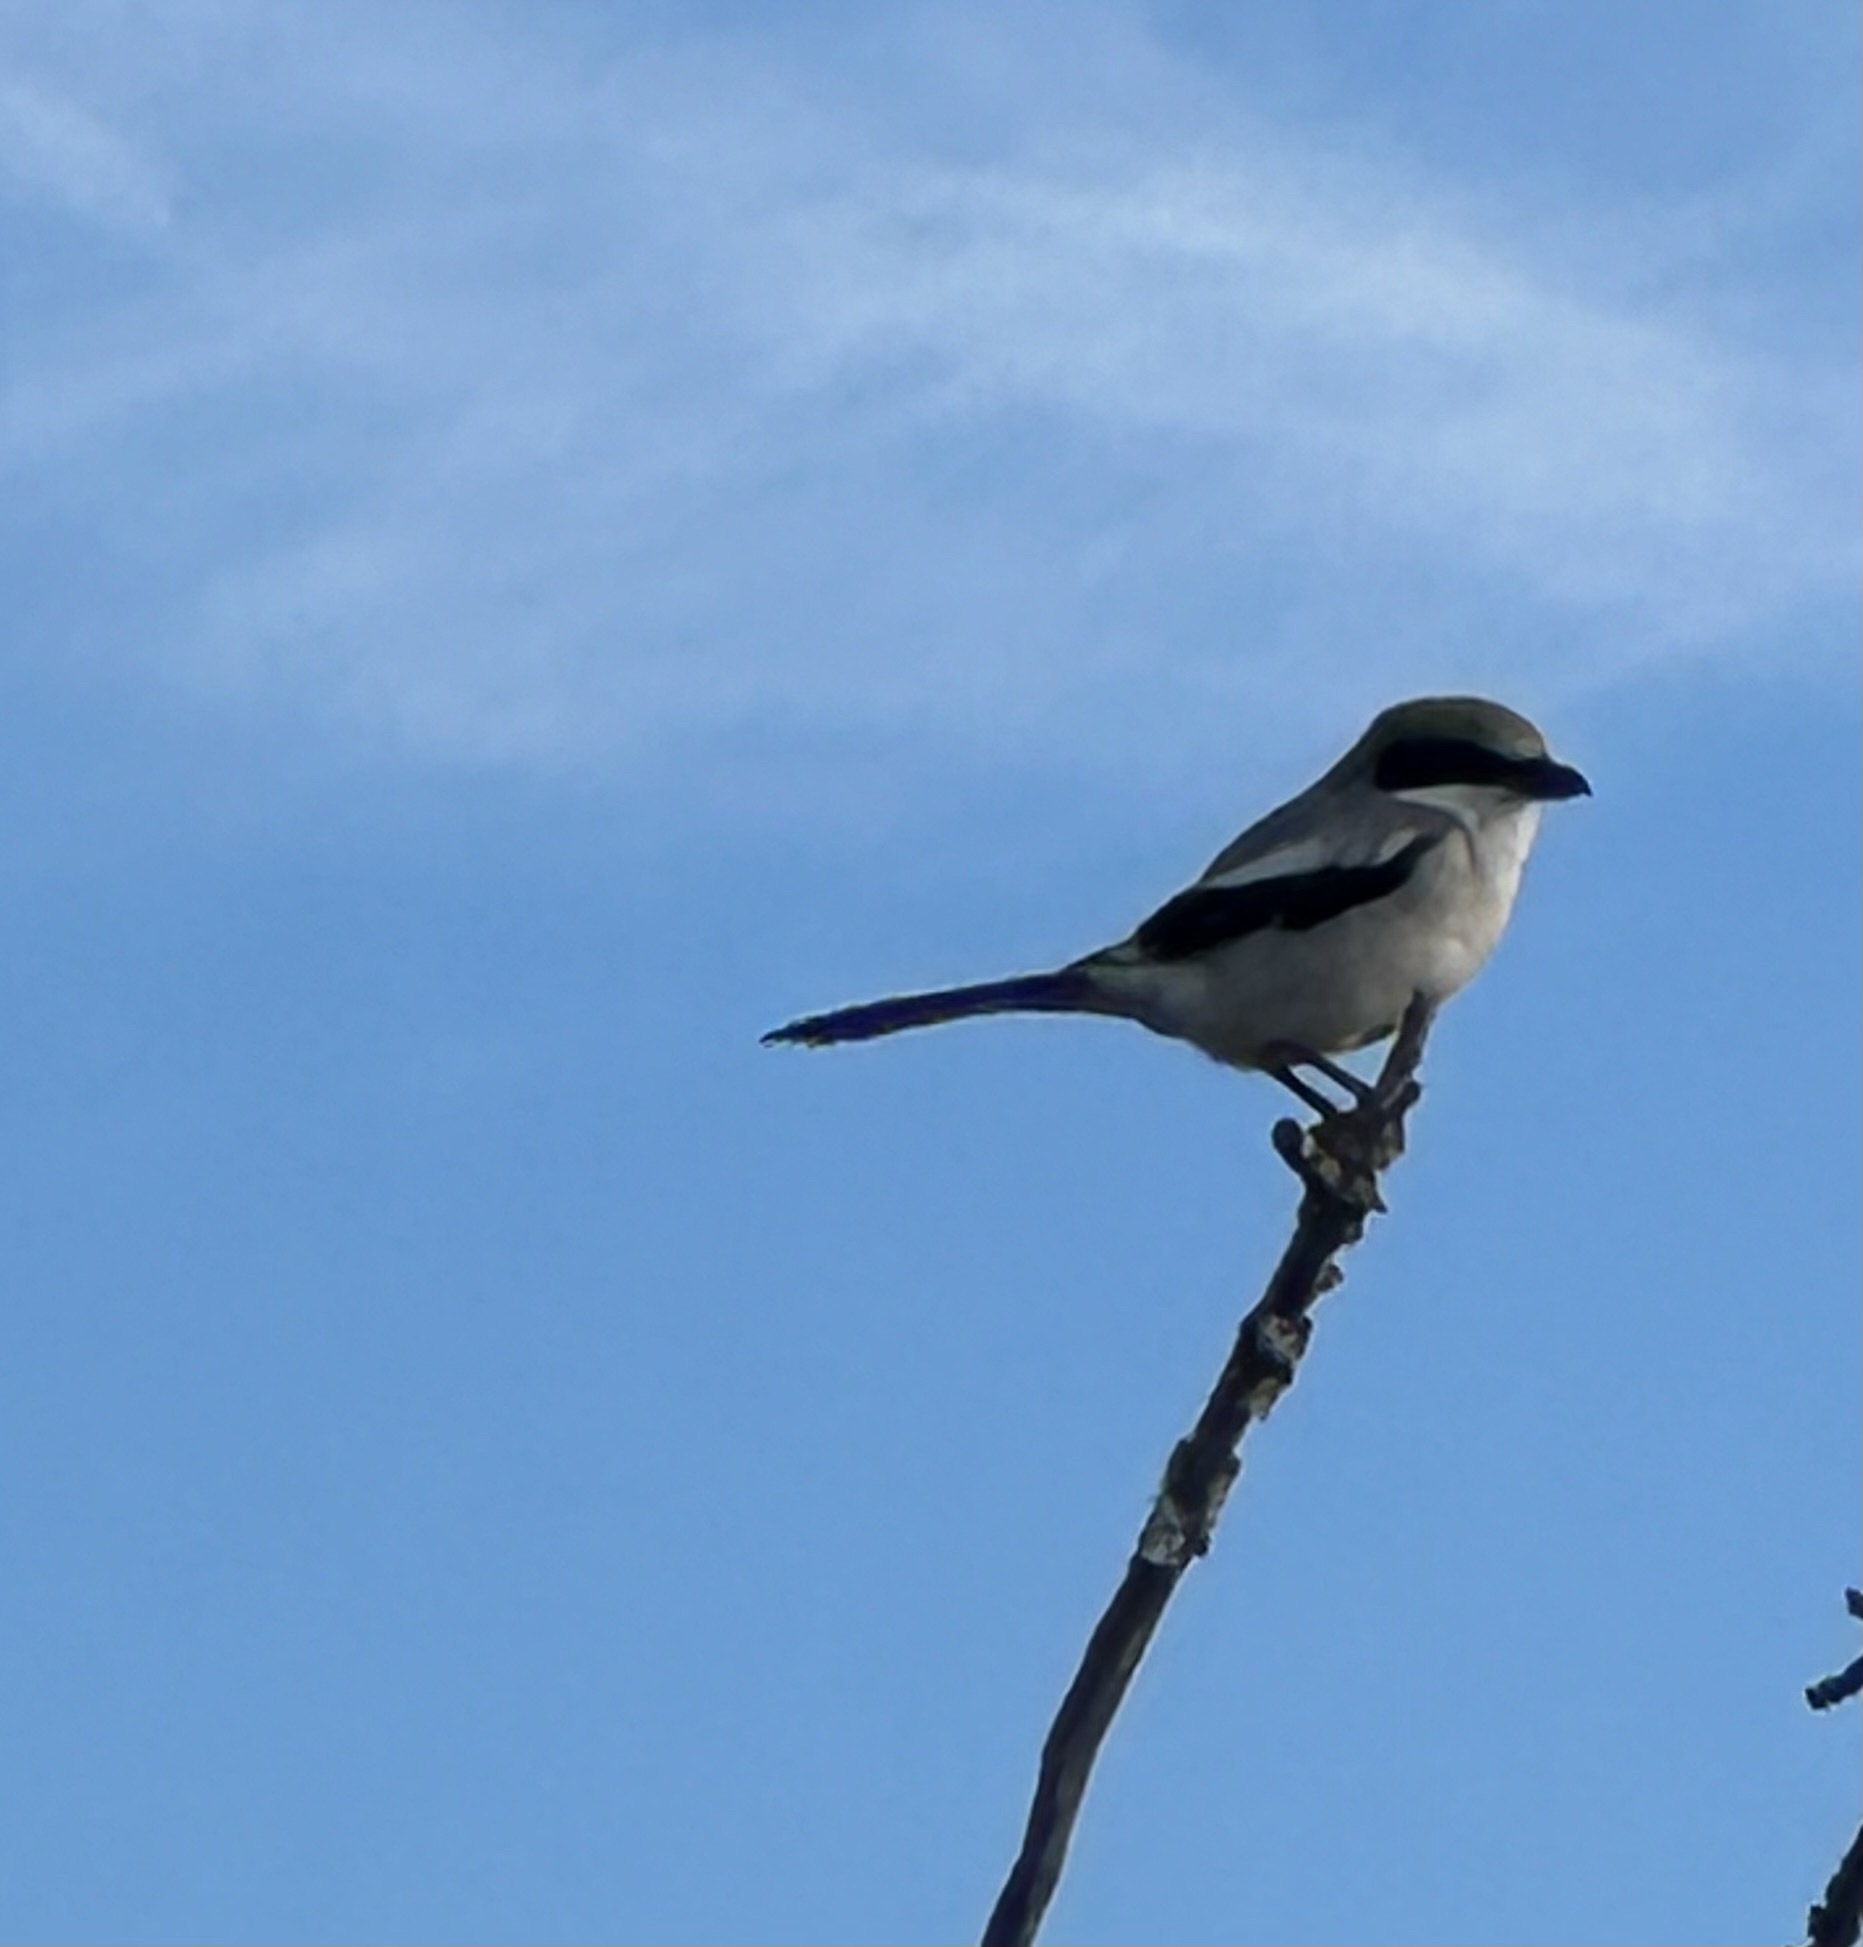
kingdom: Animalia
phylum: Chordata
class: Aves
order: Passeriformes
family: Laniidae
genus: Lanius
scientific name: Lanius ludovicianus
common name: Loggerhead shrike
